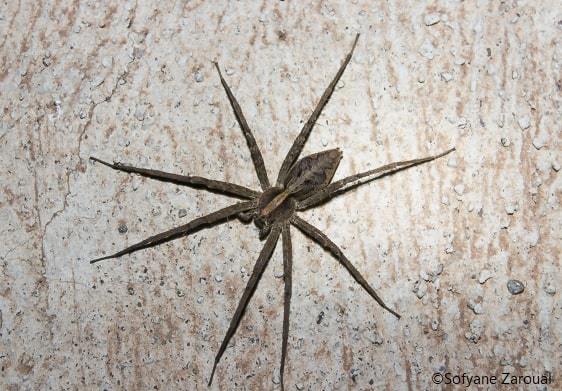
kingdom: Animalia
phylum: Arthropoda
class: Arachnida
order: Araneae
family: Pisauridae
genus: Pisaura
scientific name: Pisaura mirabilis
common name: Tent spider
